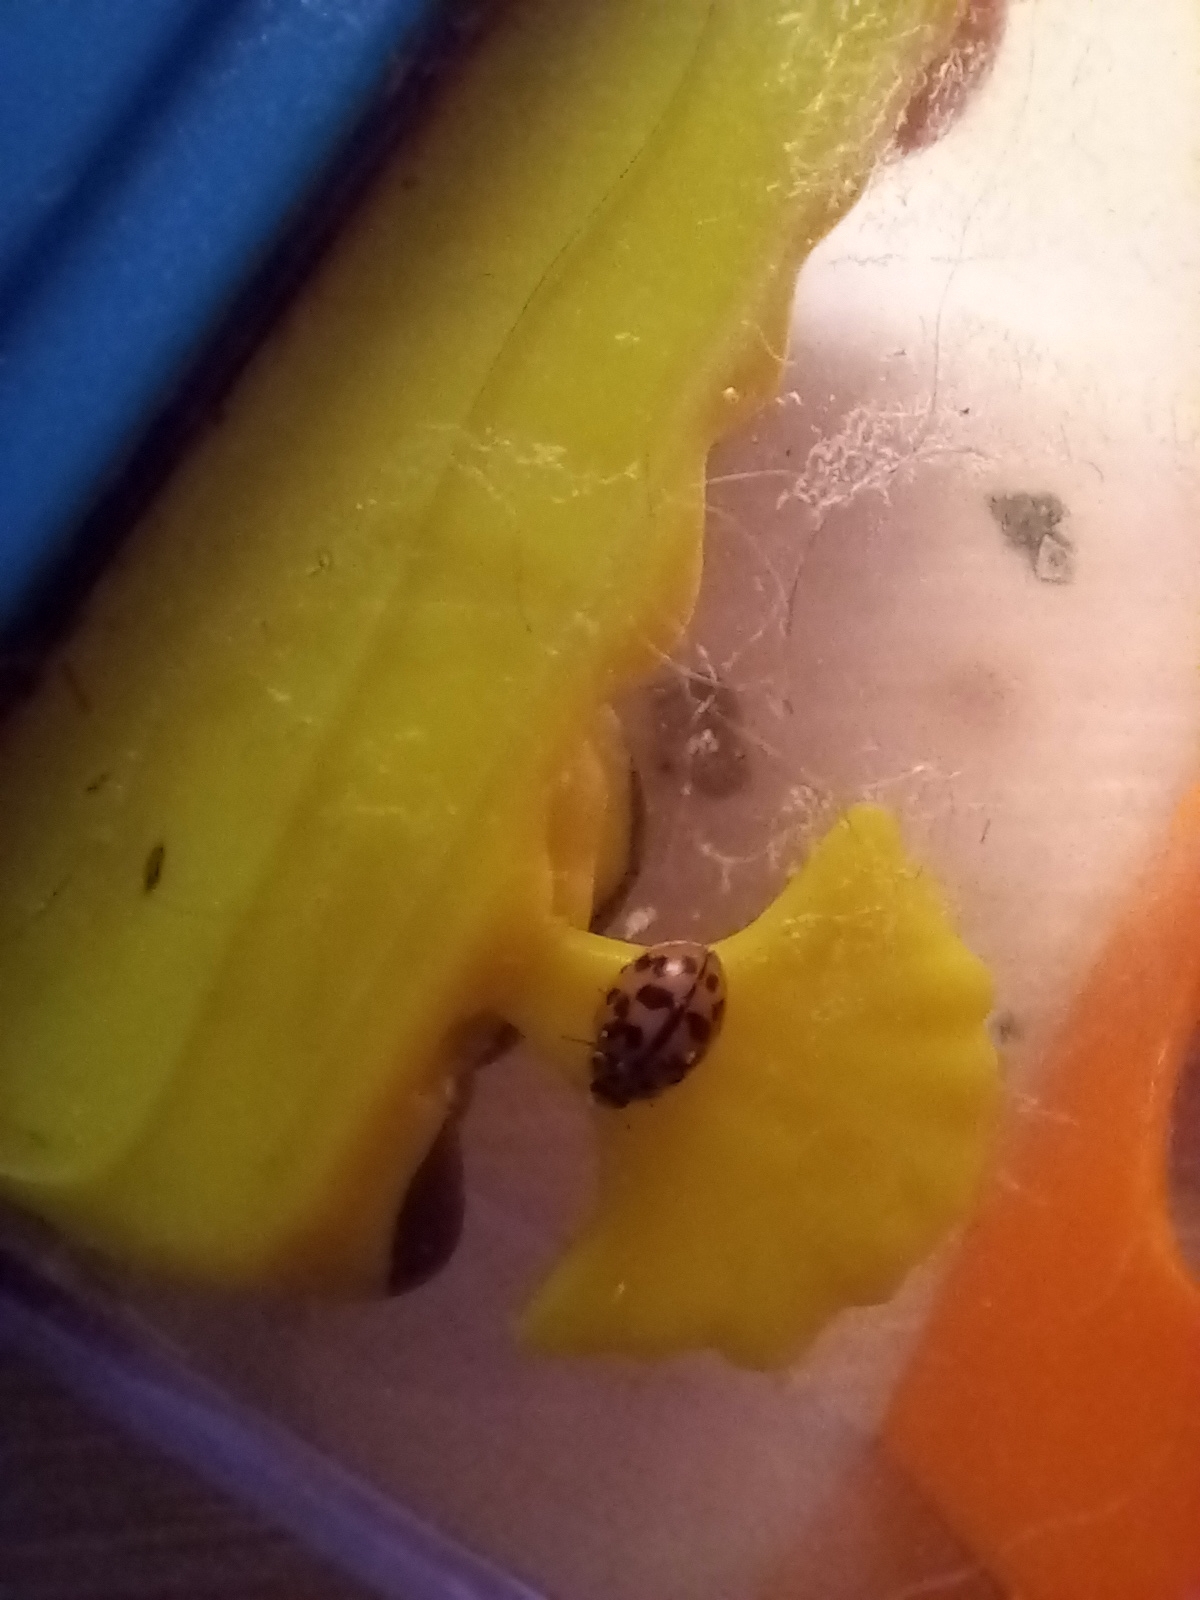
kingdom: Animalia
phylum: Arthropoda
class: Insecta
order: Coleoptera
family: Coccinellidae
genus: Oenopia
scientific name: Oenopia conglobata
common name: Ladybird beetle
